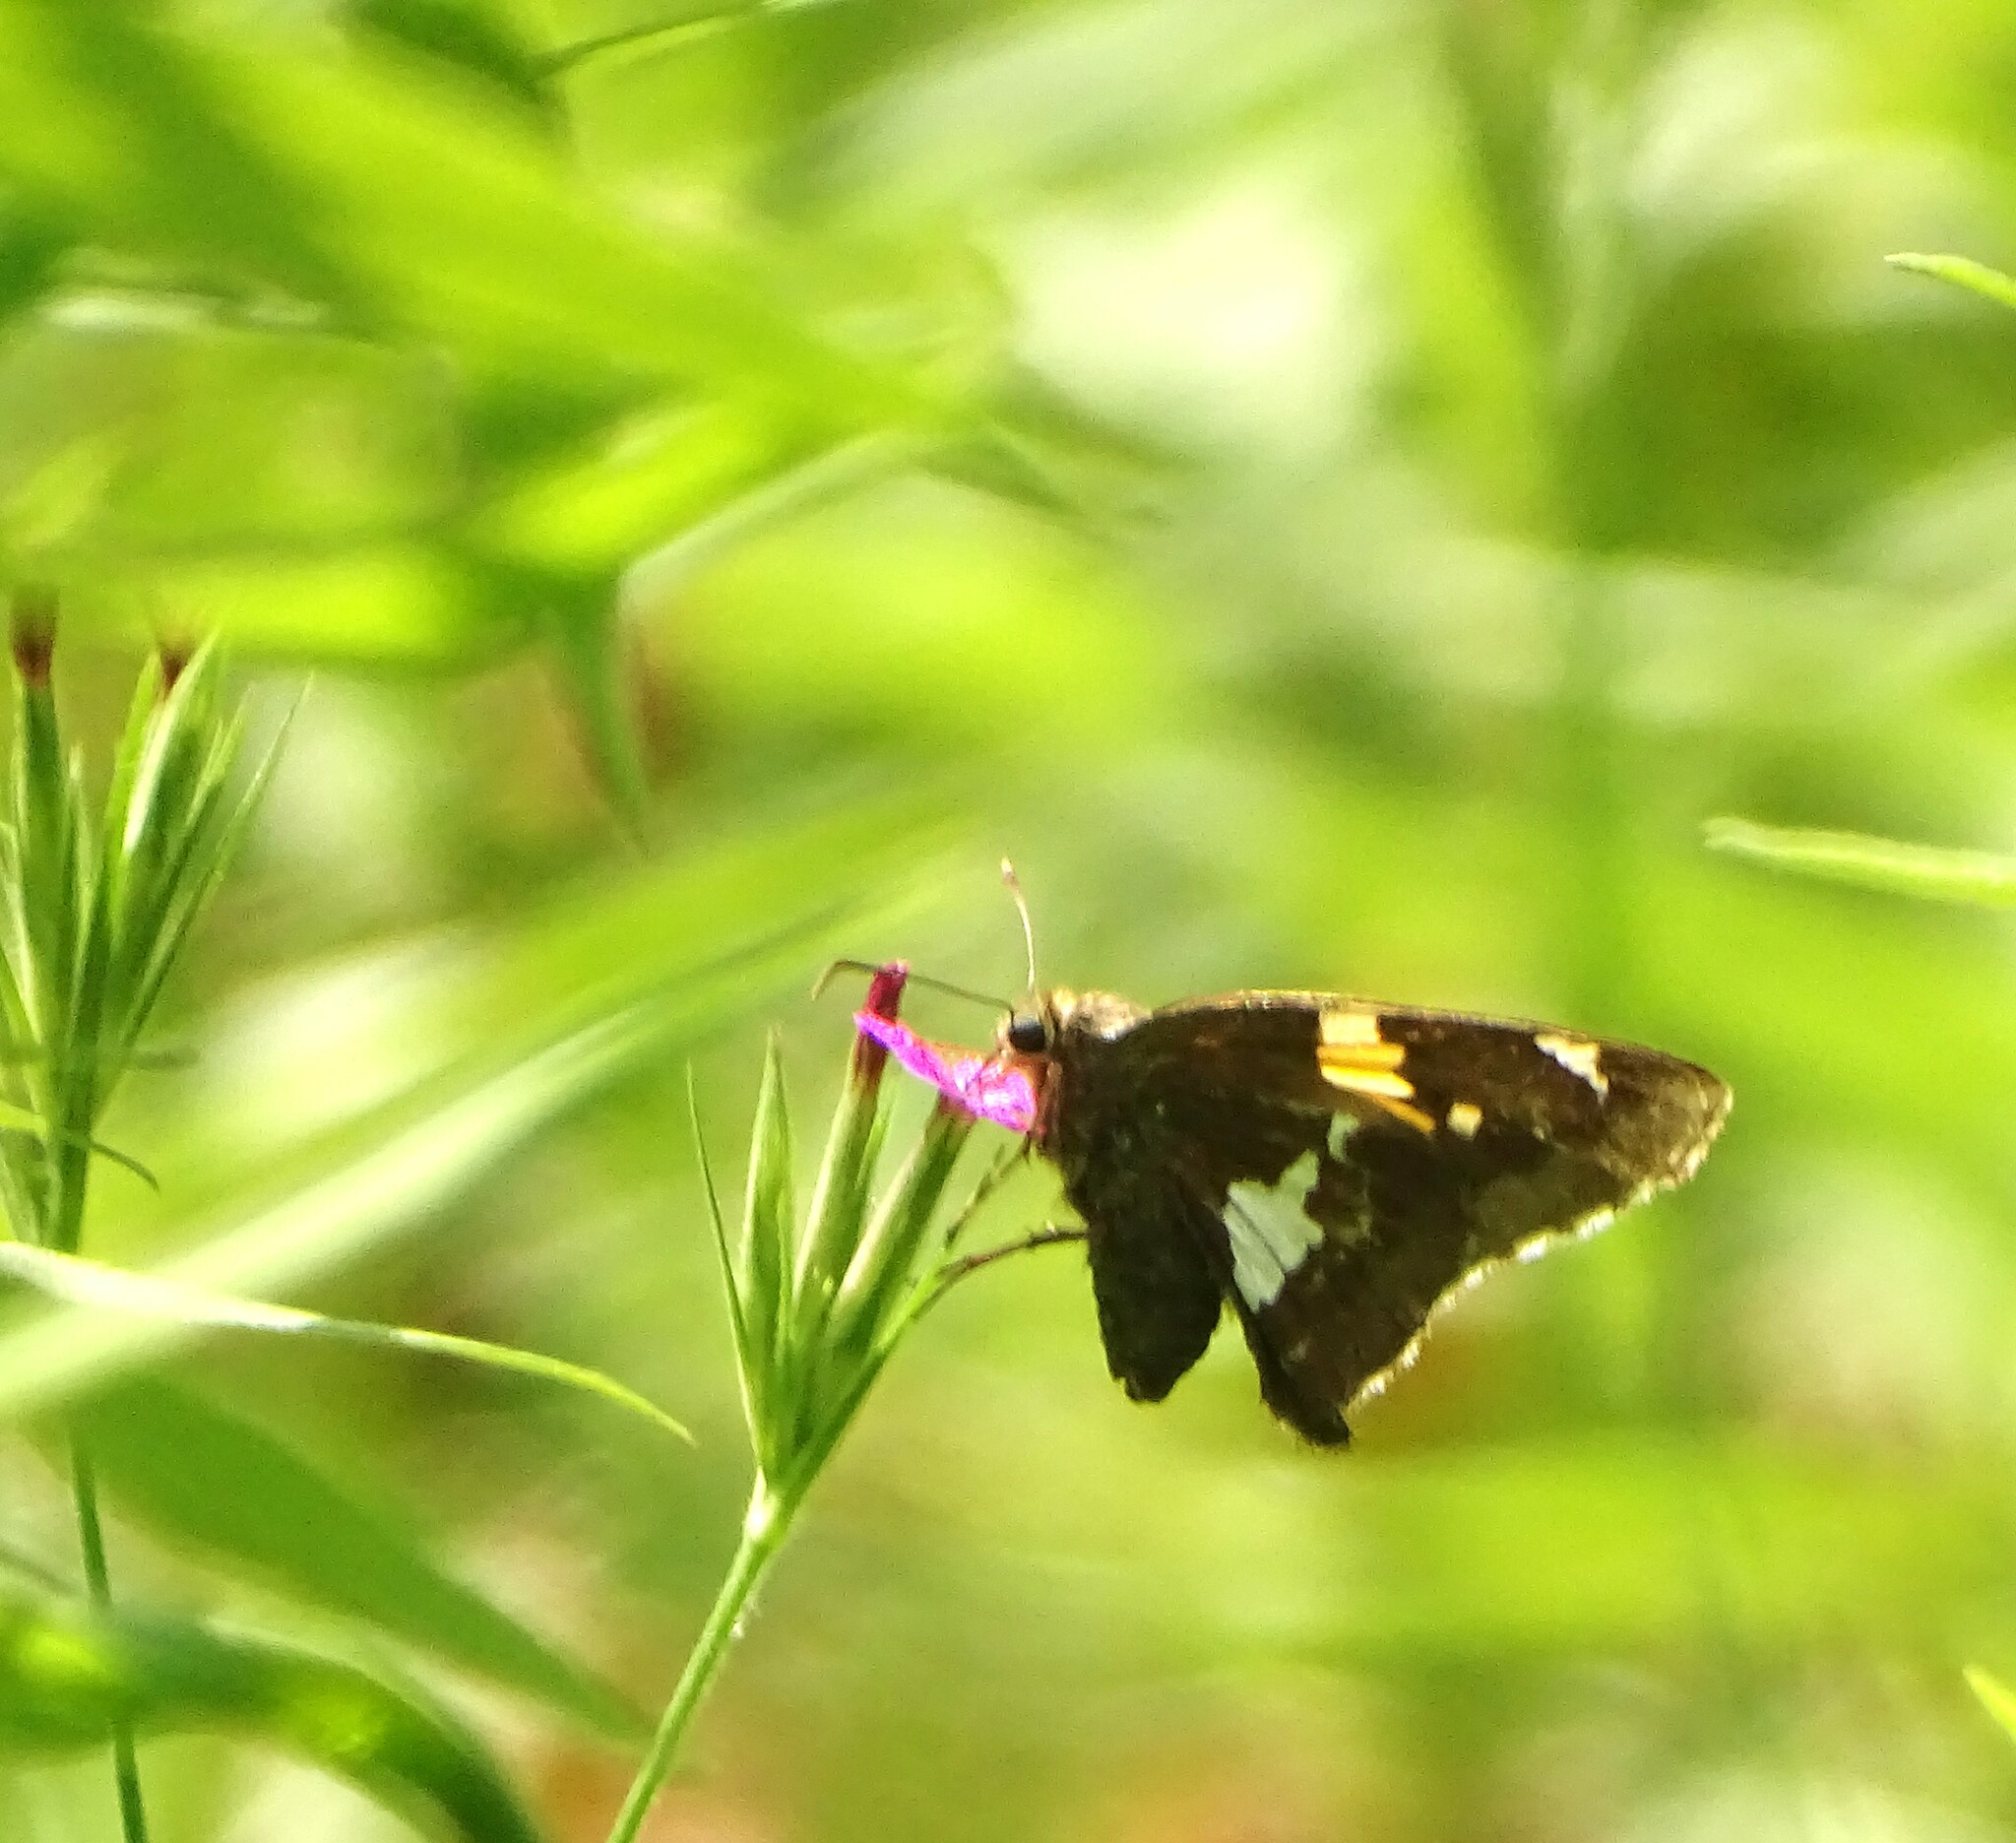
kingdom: Animalia
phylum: Arthropoda
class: Insecta
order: Lepidoptera
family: Hesperiidae
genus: Epargyreus
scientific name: Epargyreus clarus
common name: Silver-spotted skipper
